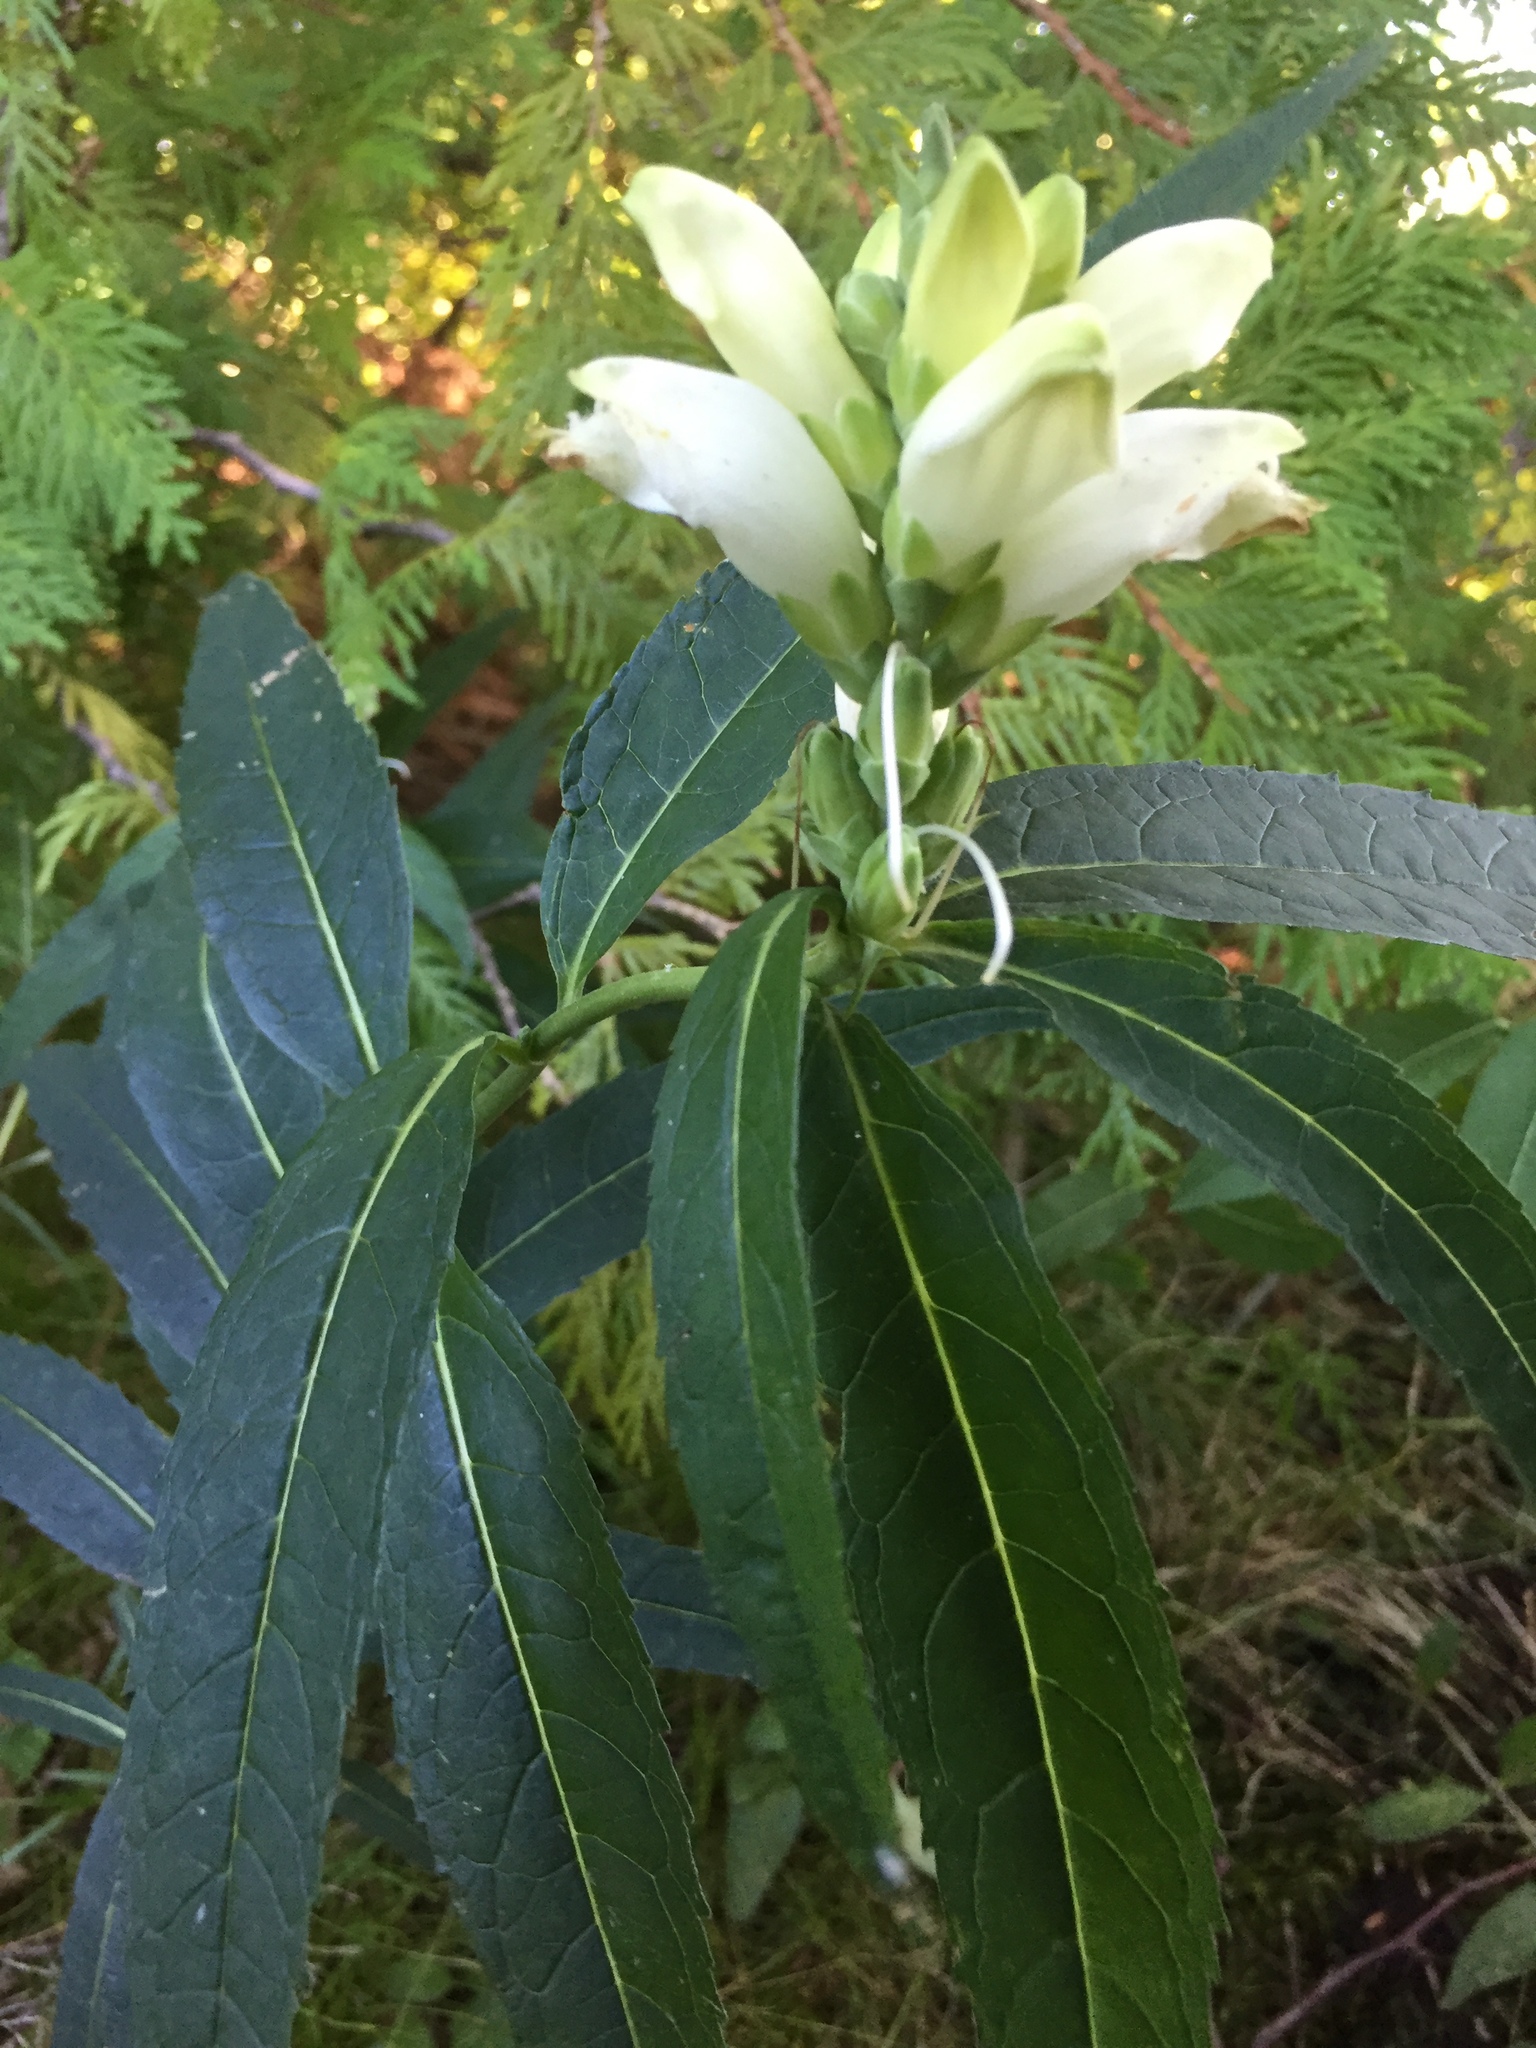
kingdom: Plantae
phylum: Tracheophyta
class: Magnoliopsida
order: Lamiales
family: Plantaginaceae
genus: Chelone
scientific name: Chelone glabra
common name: Snakehead
